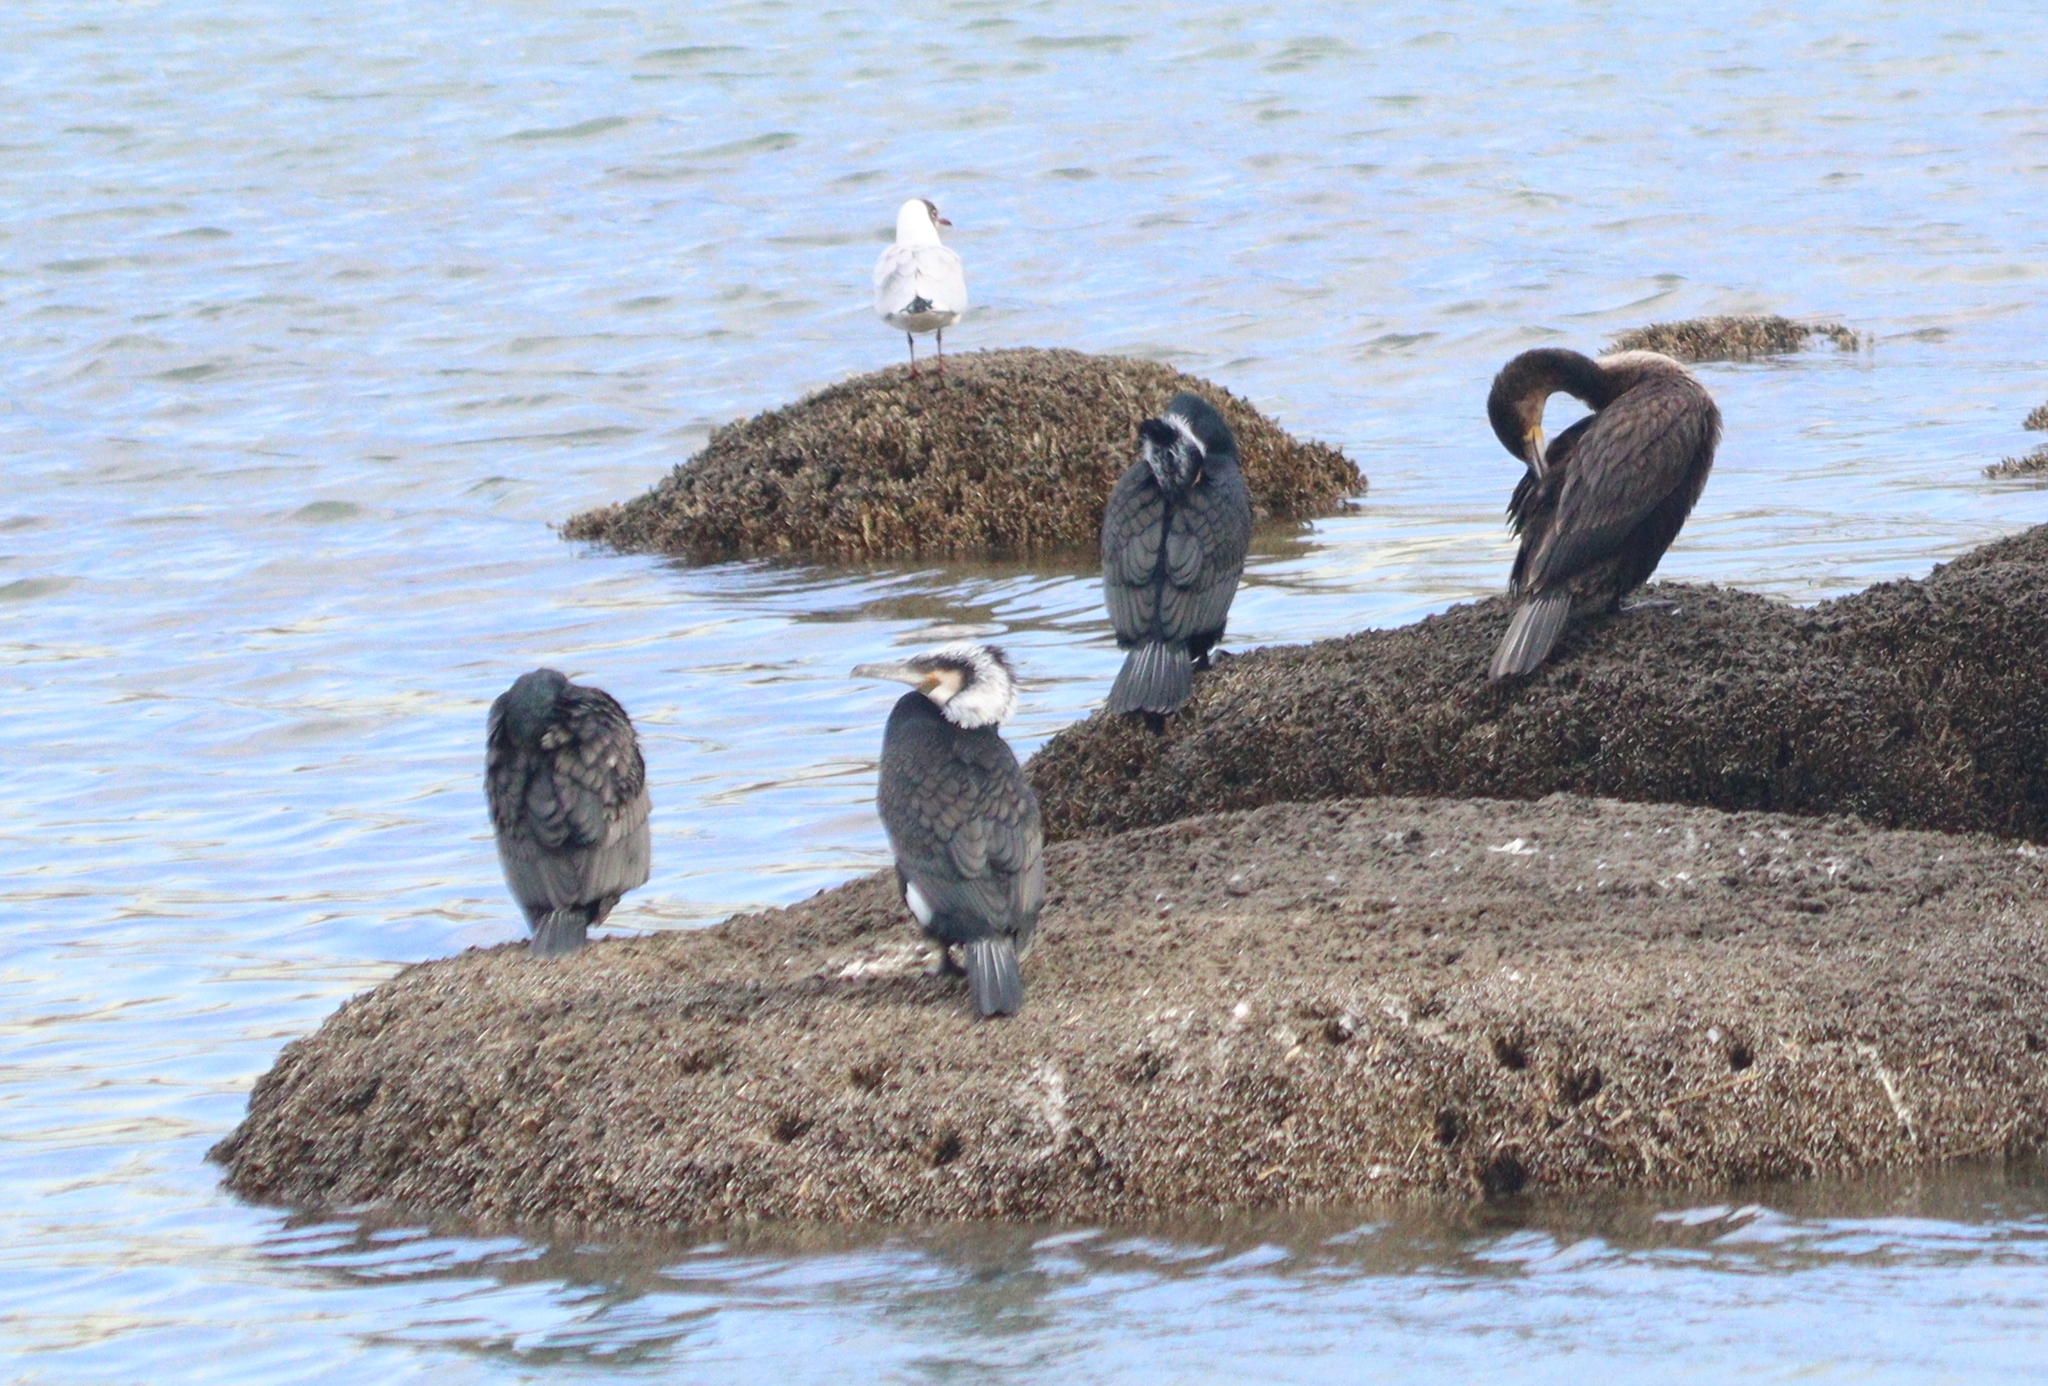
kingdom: Animalia
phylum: Chordata
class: Aves
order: Suliformes
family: Phalacrocoracidae
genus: Phalacrocorax
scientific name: Phalacrocorax carbo
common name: Great cormorant
